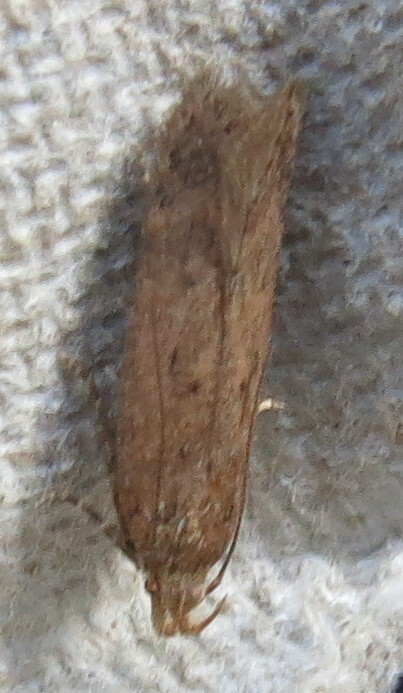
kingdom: Animalia
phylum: Arthropoda
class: Insecta
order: Lepidoptera
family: Gelechiidae
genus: Bryotropha
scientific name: Bryotropha terrella
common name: Cinerous groundling
